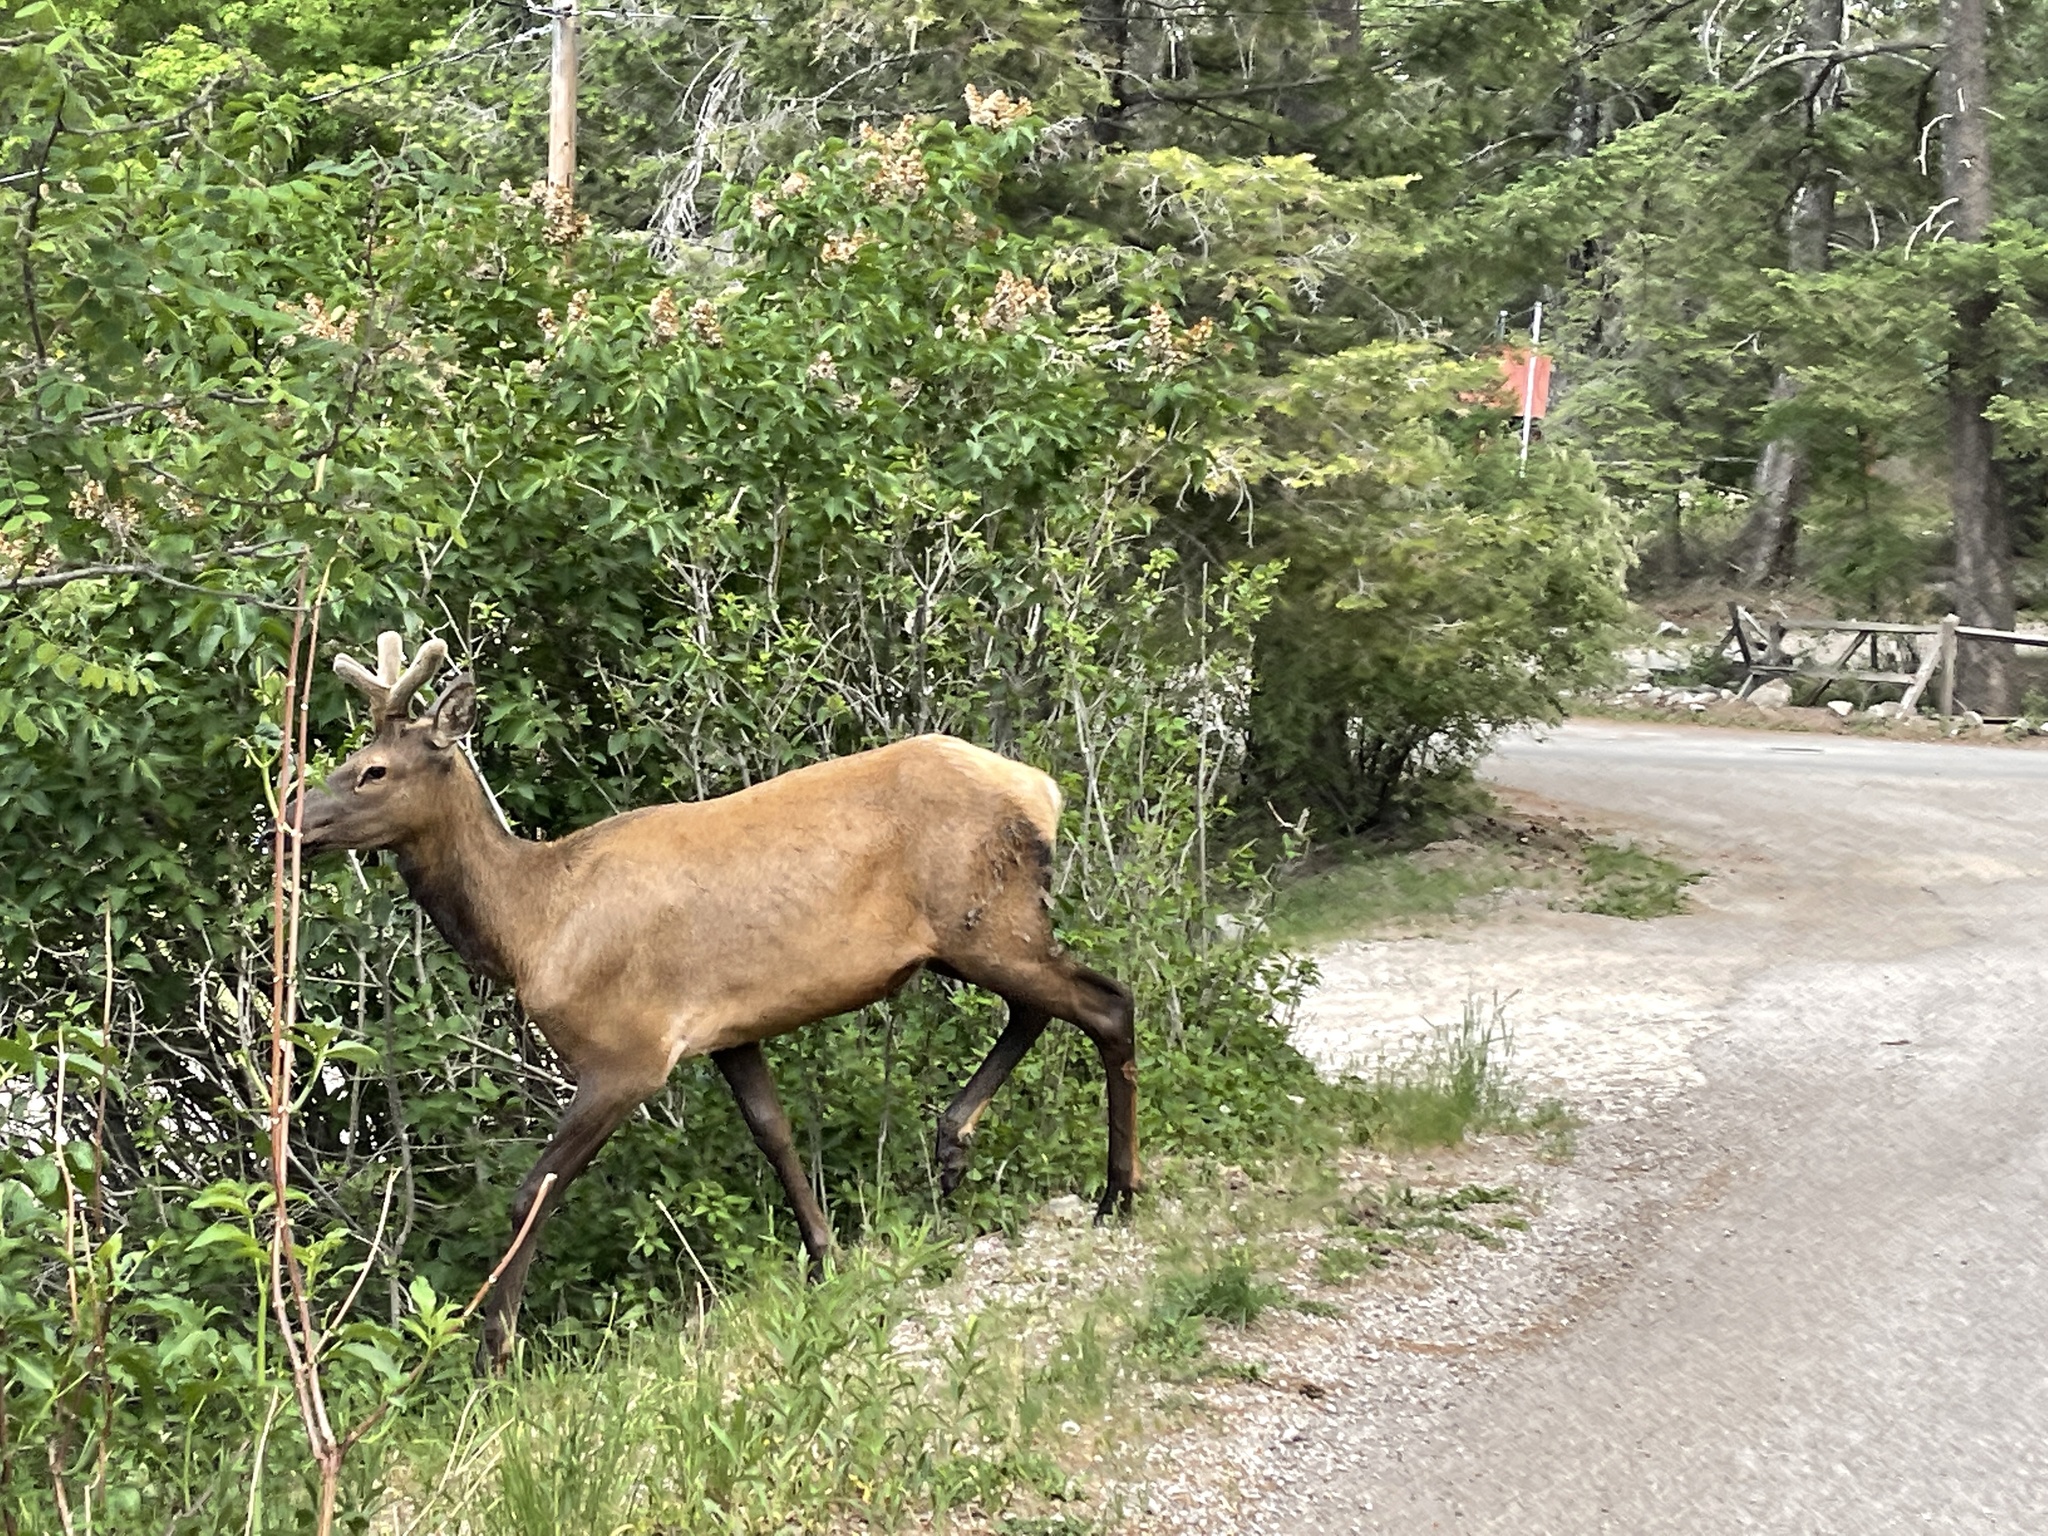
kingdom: Animalia
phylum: Chordata
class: Mammalia
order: Artiodactyla
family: Cervidae
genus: Cervus
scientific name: Cervus elaphus
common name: Red deer
